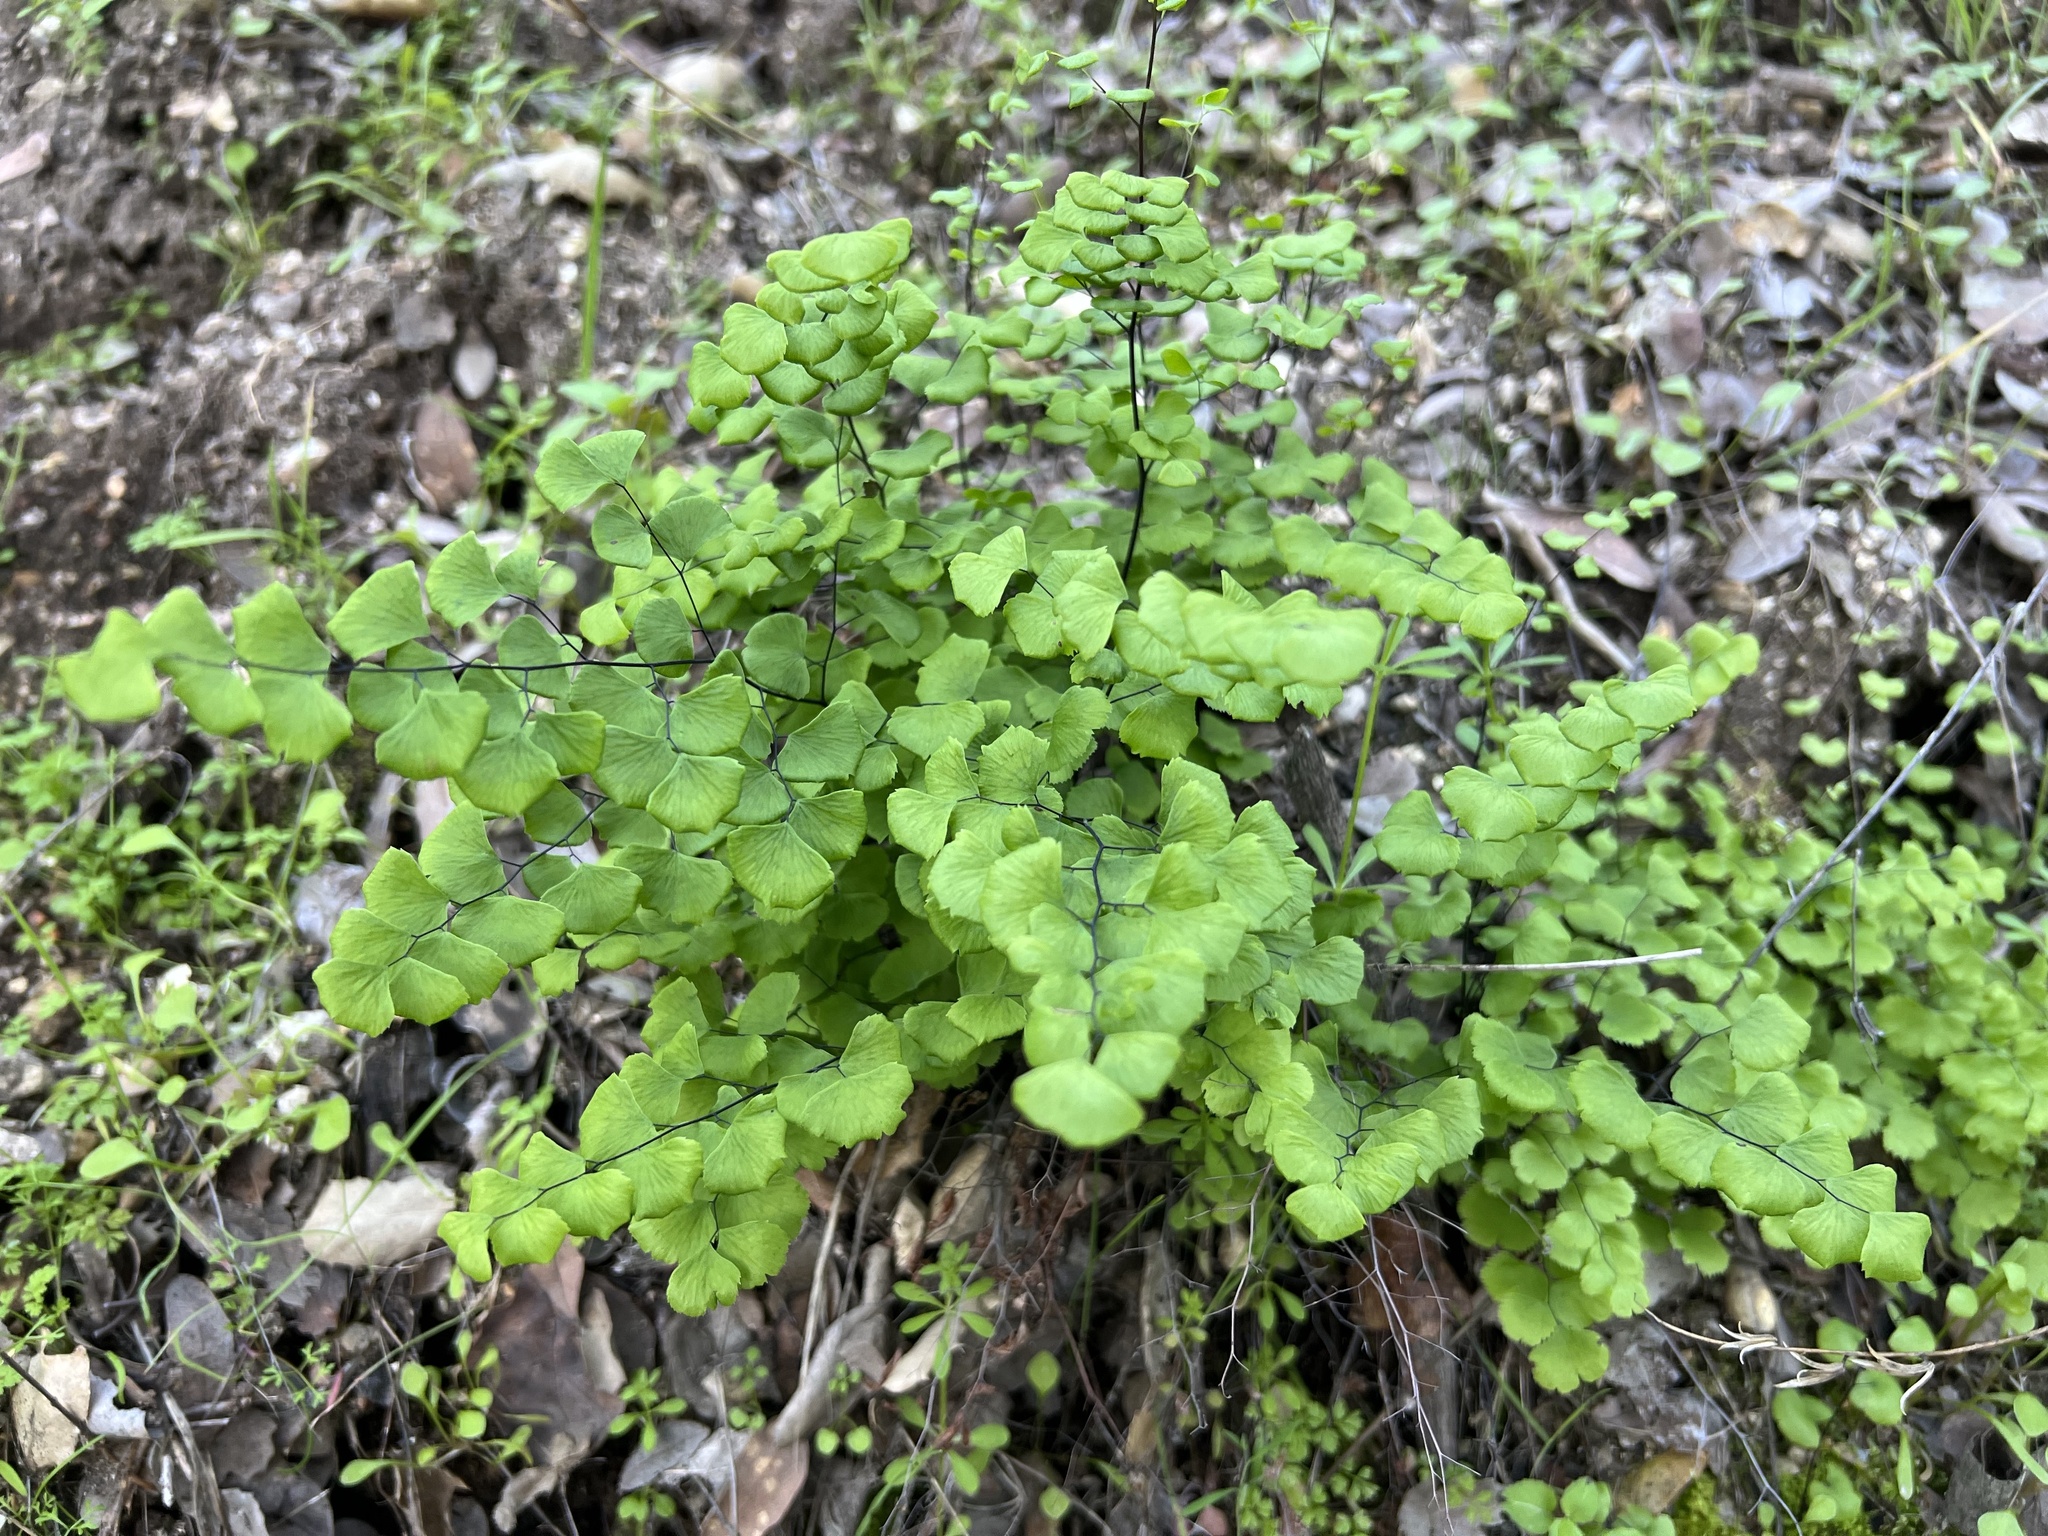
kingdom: Plantae
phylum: Tracheophyta
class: Polypodiopsida
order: Polypodiales
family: Pteridaceae
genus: Adiantum
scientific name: Adiantum jordanii
